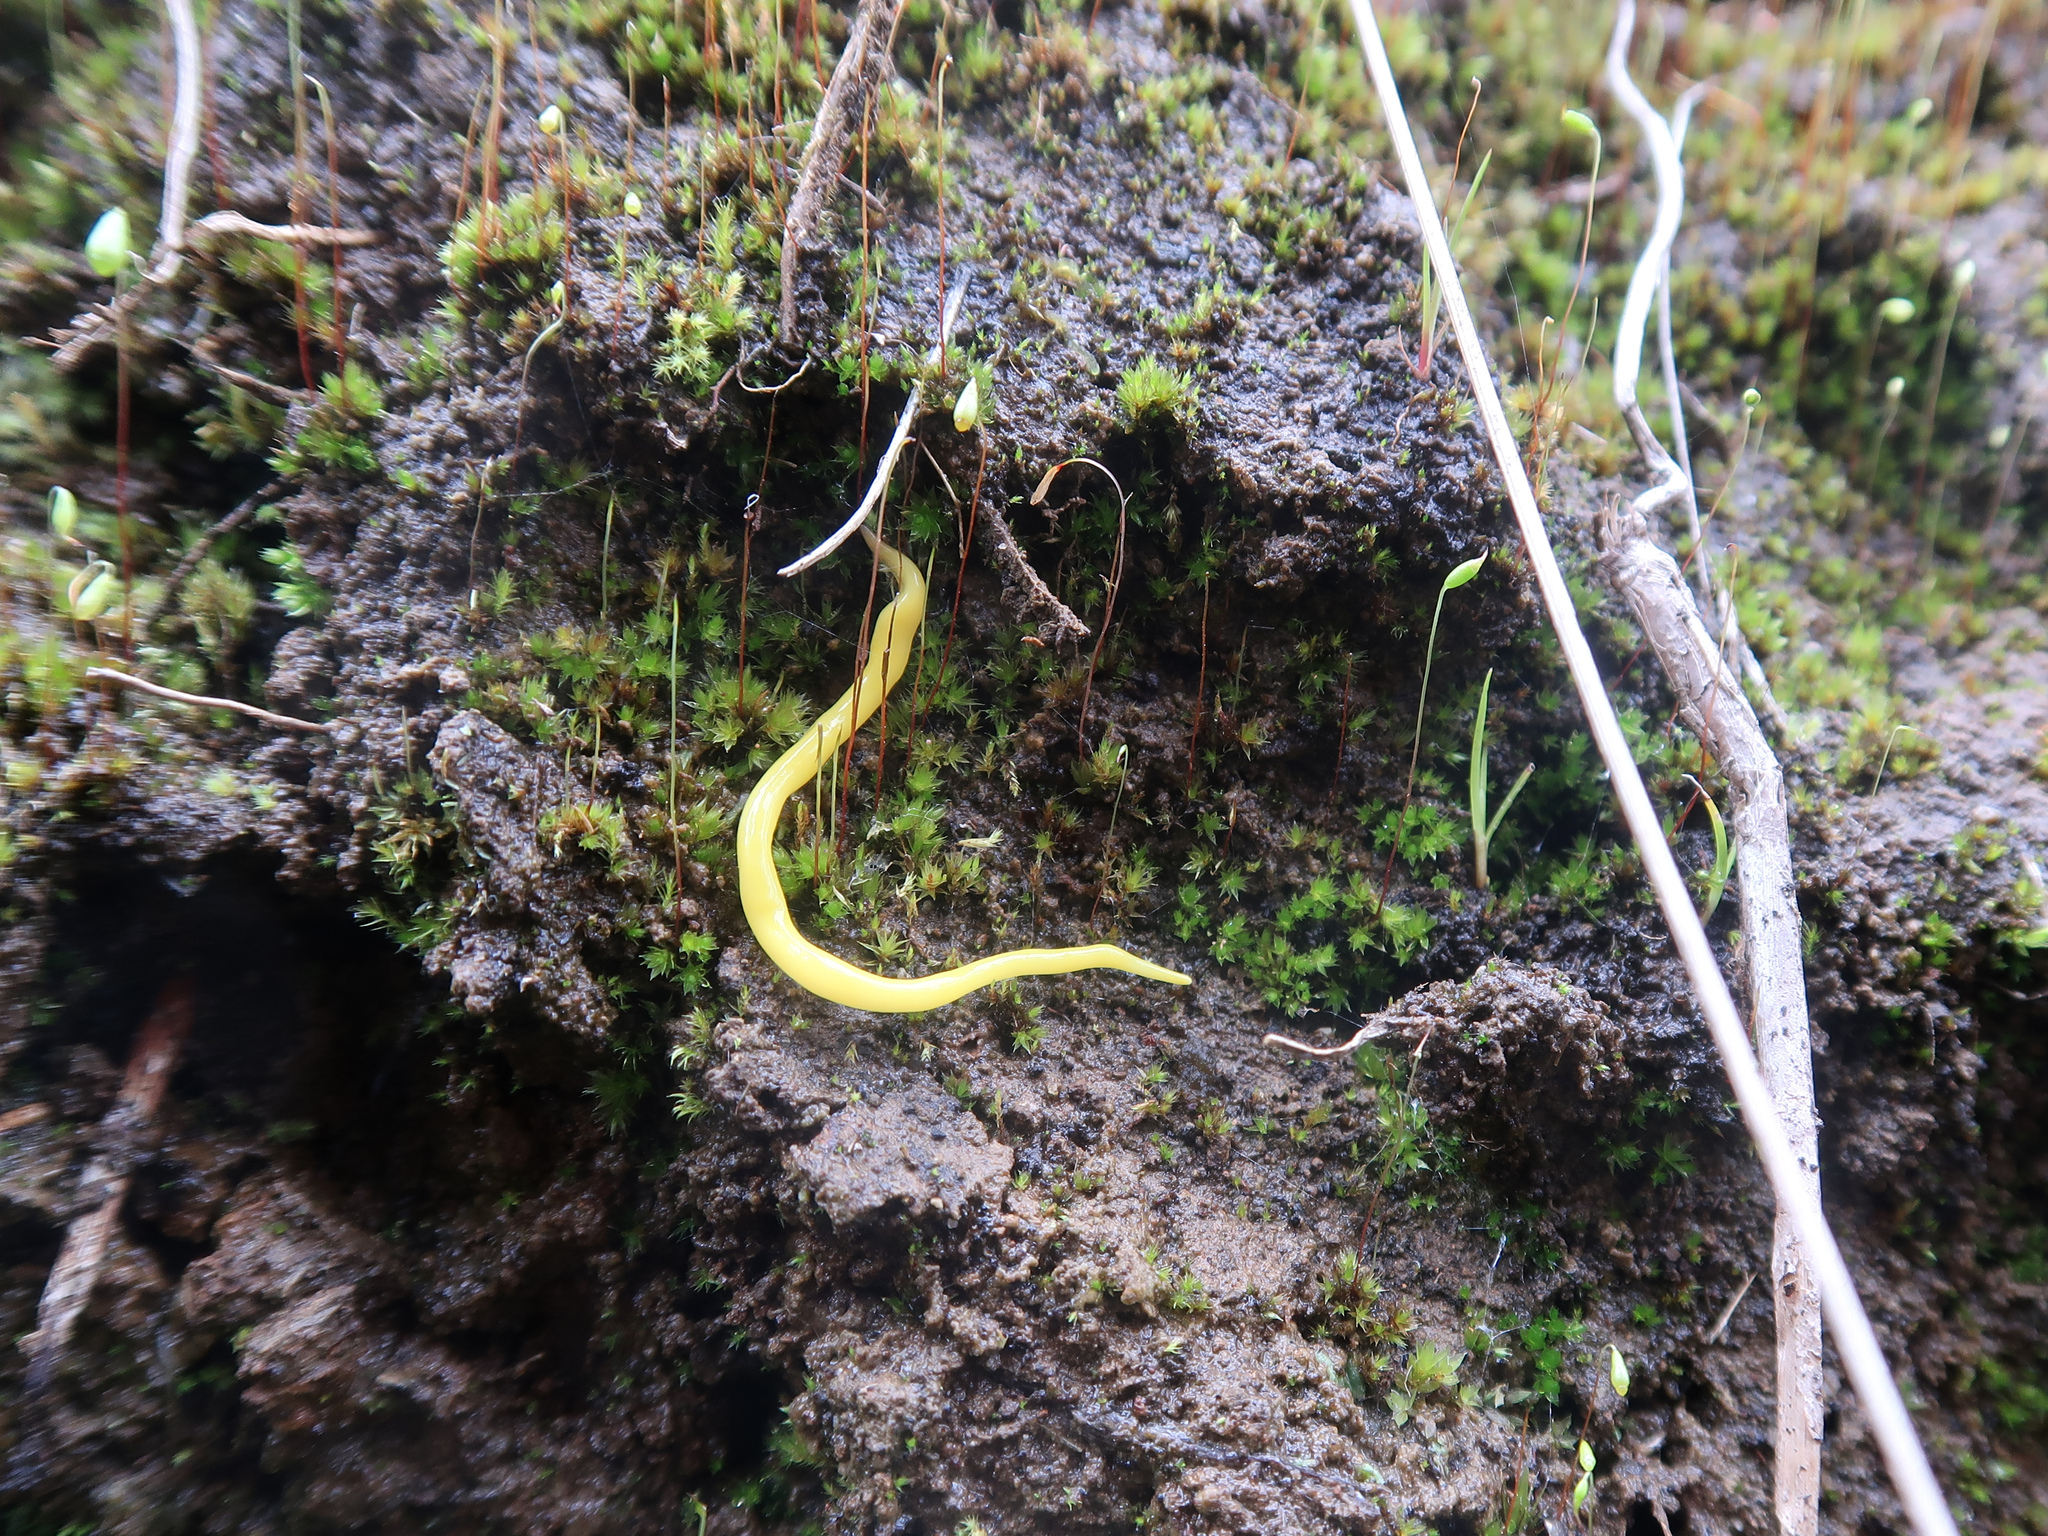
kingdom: Animalia
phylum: Platyhelminthes
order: Tricladida
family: Geoplanidae
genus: Fletchamia
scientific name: Fletchamia sugdeni
